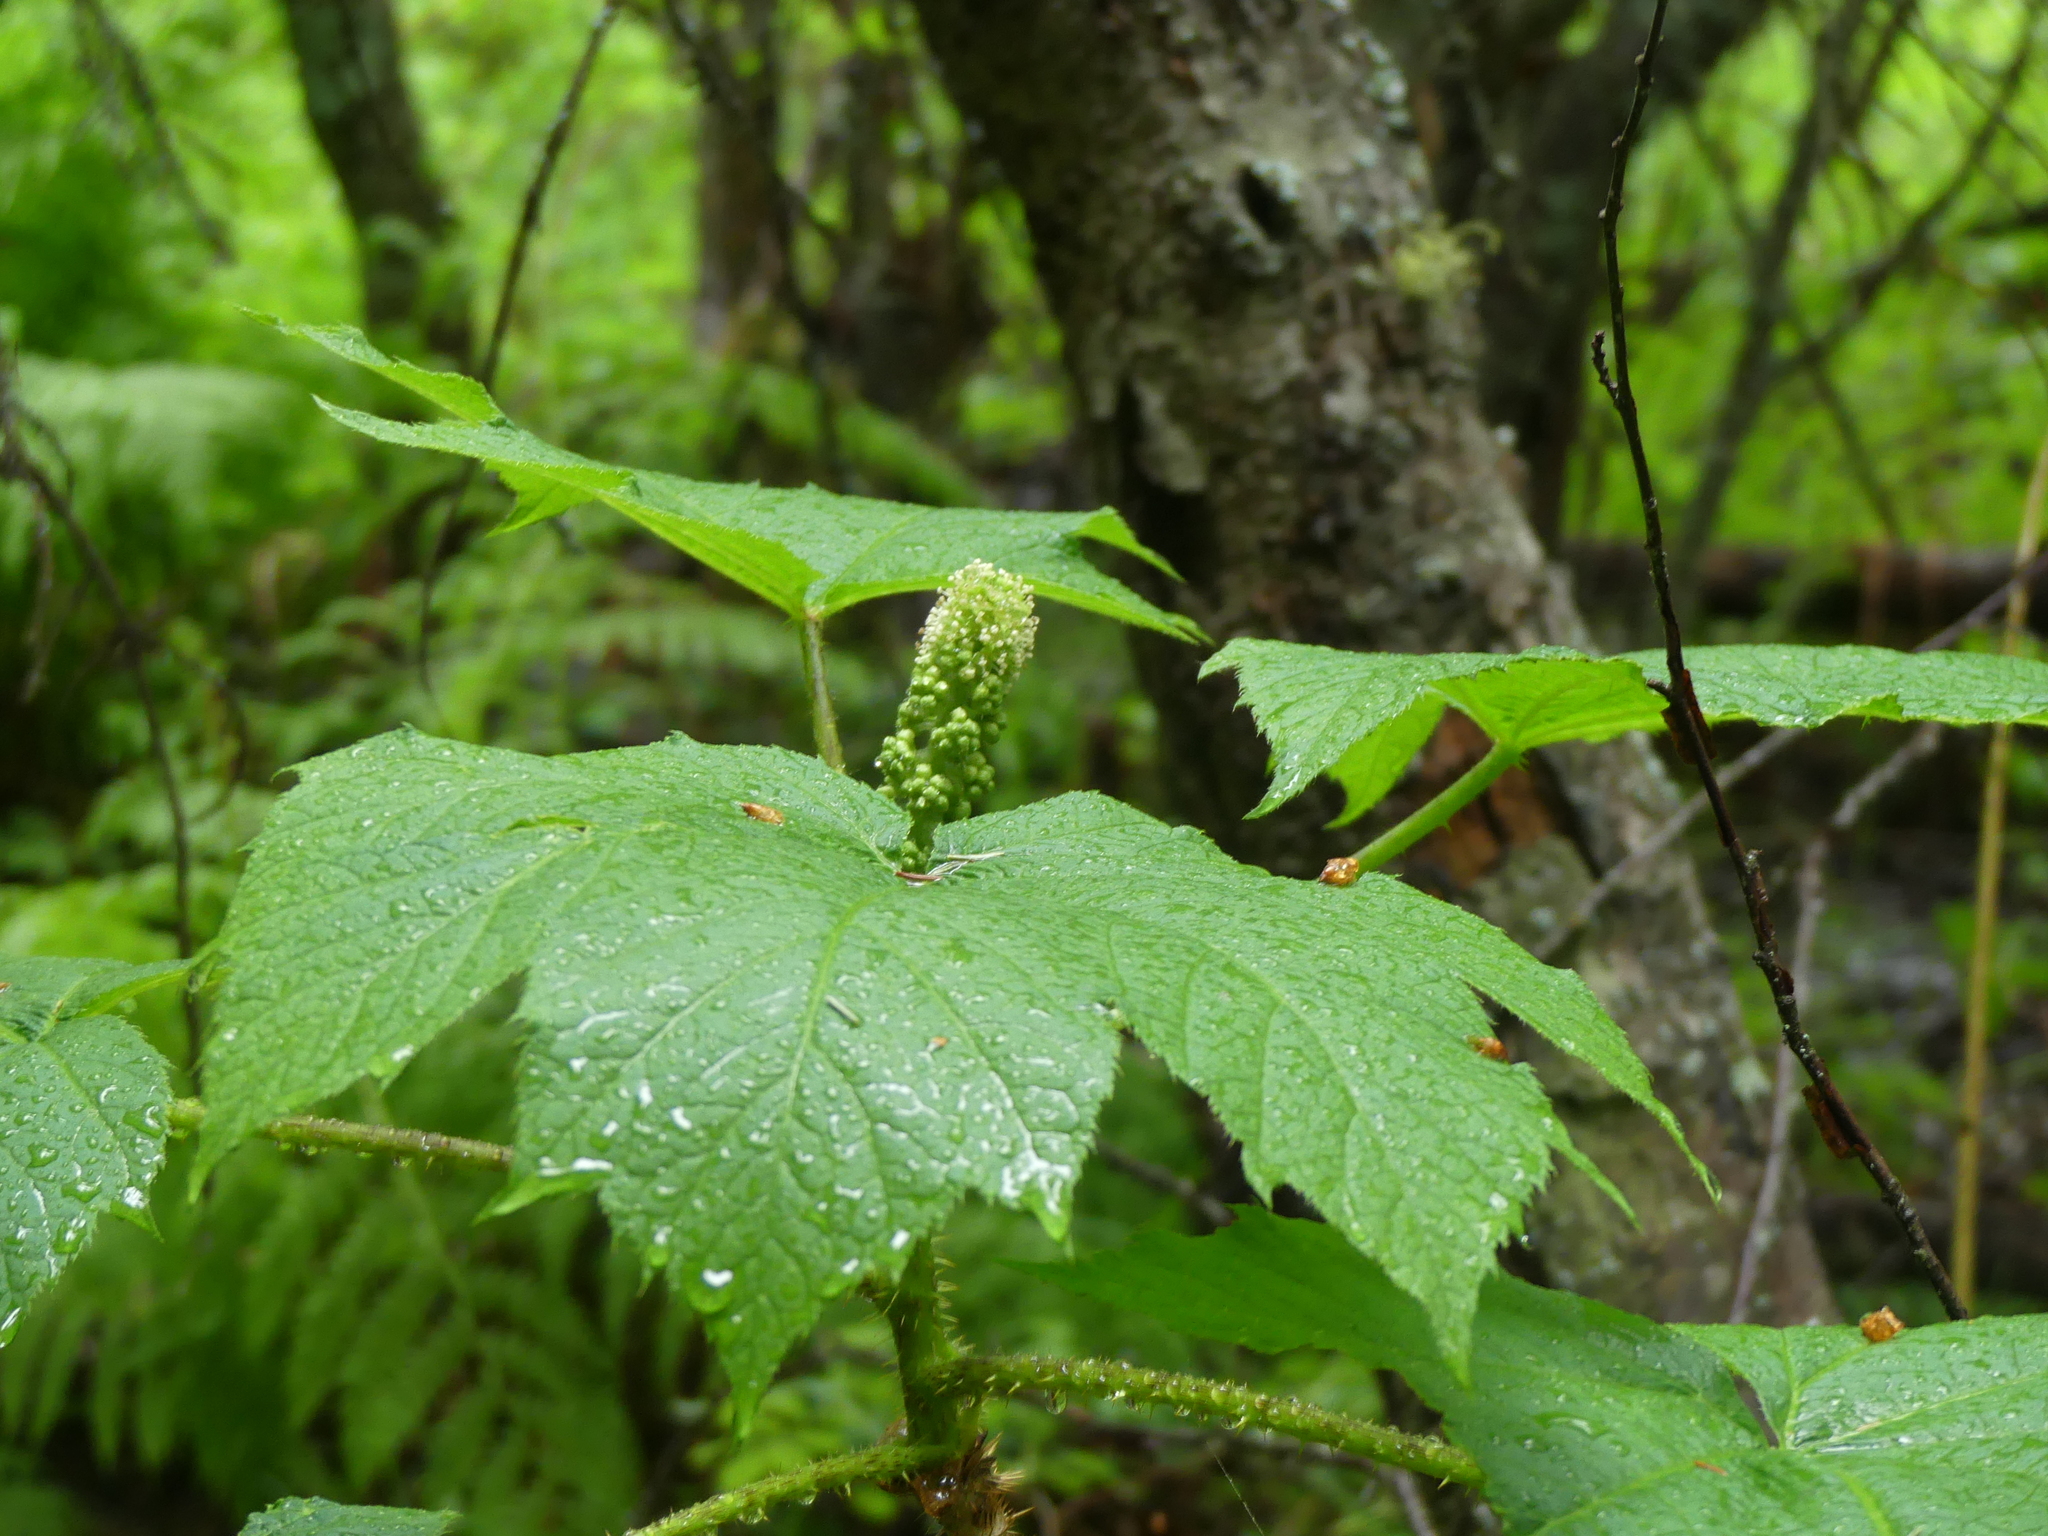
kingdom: Plantae
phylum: Tracheophyta
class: Magnoliopsida
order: Apiales
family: Araliaceae
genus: Oplopanax
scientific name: Oplopanax horridus
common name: Devil's walking-stick
